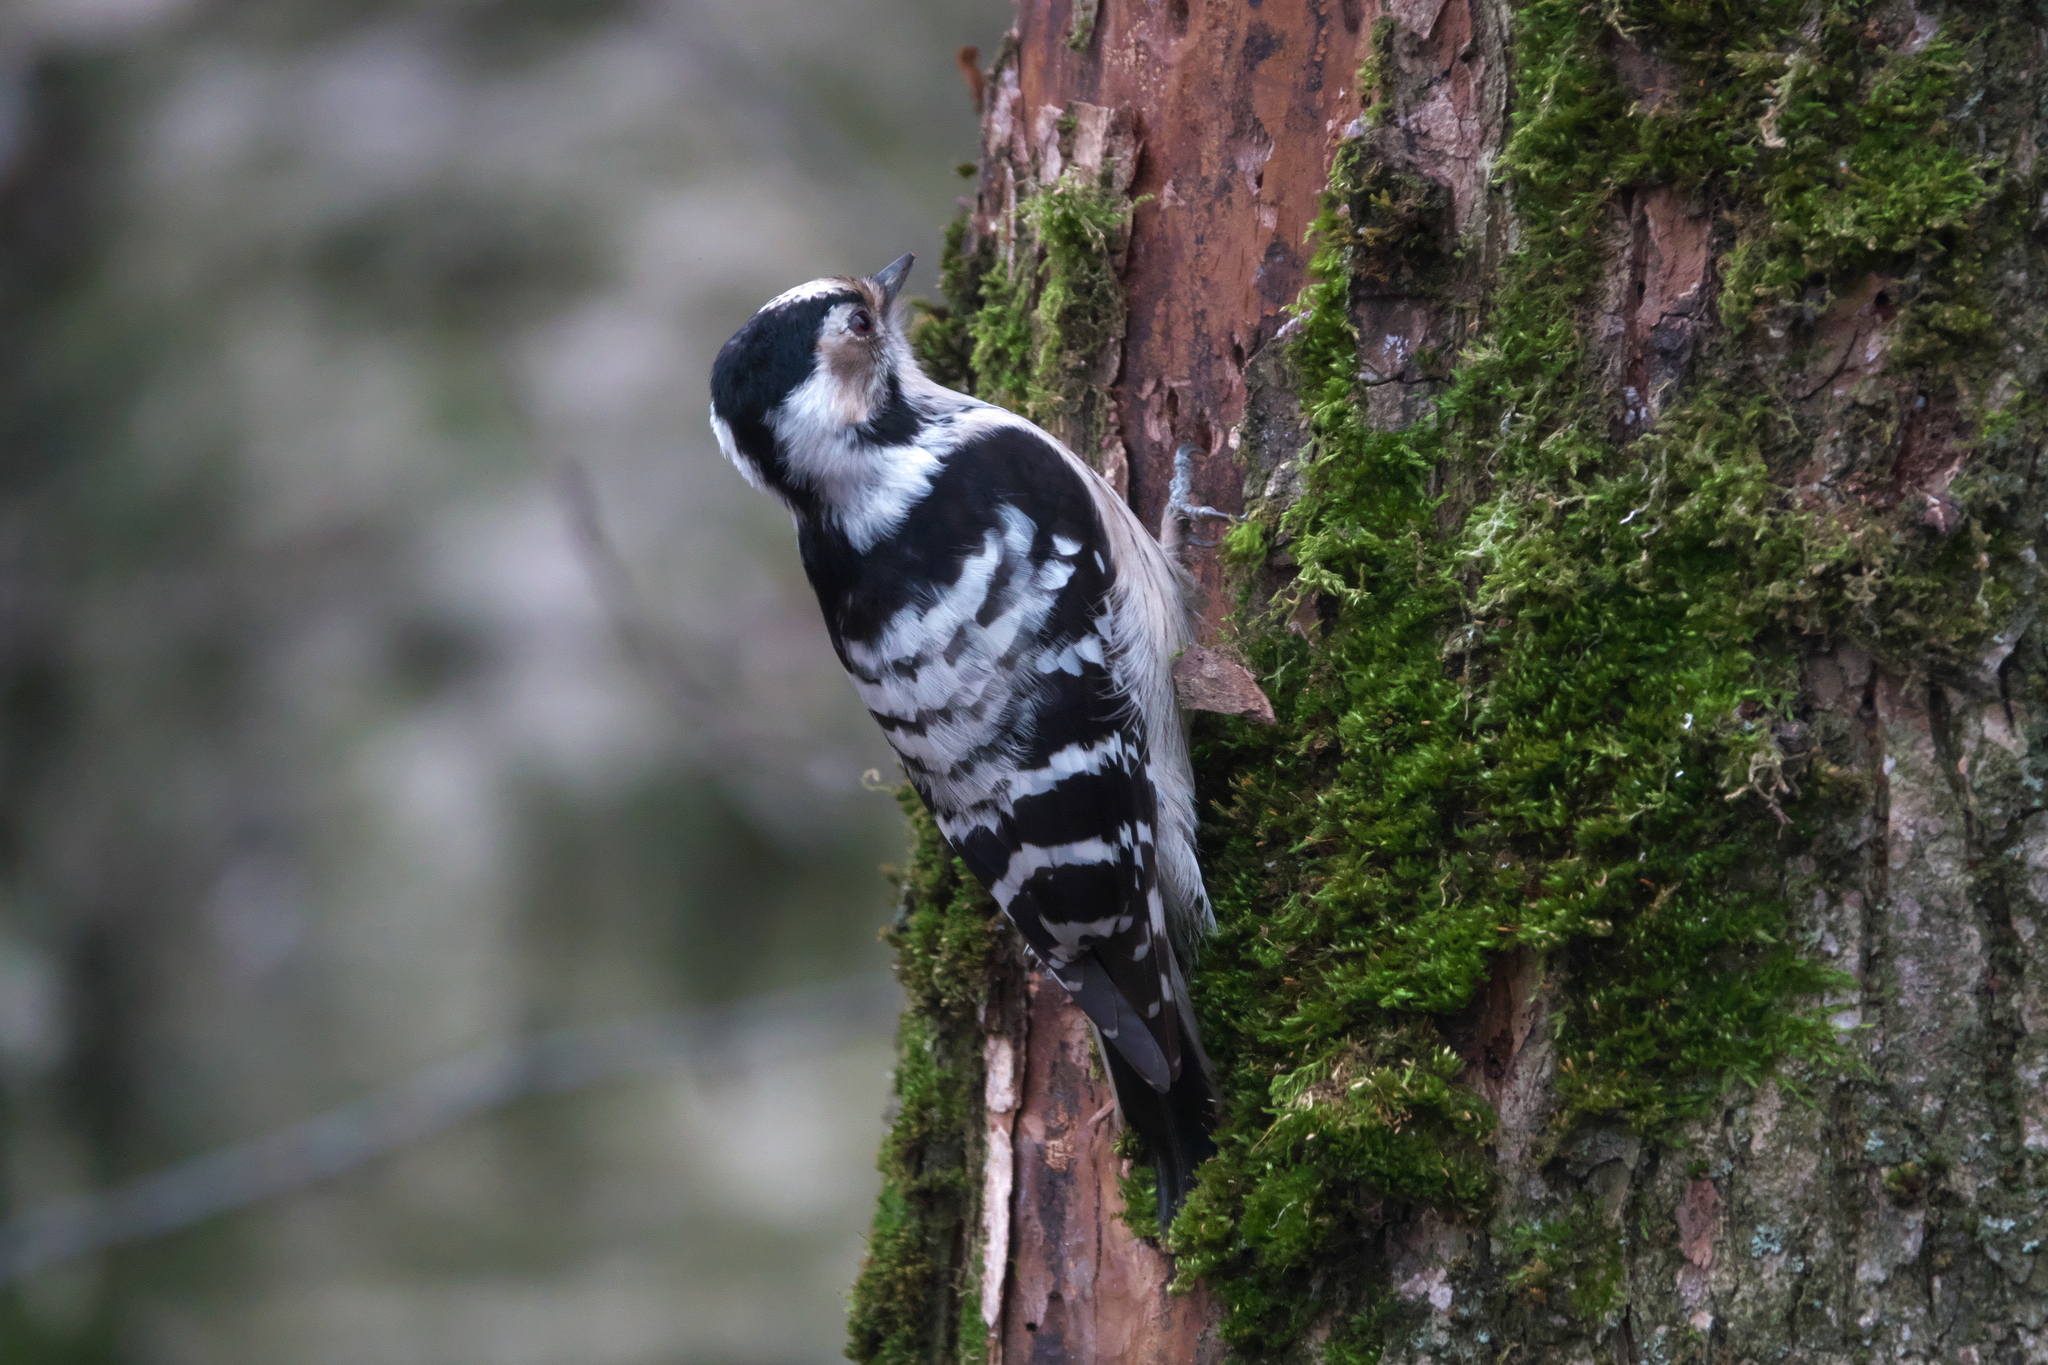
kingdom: Animalia
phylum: Chordata
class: Aves
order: Piciformes
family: Picidae
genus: Dryobates
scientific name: Dryobates minor
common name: Lesser spotted woodpecker
